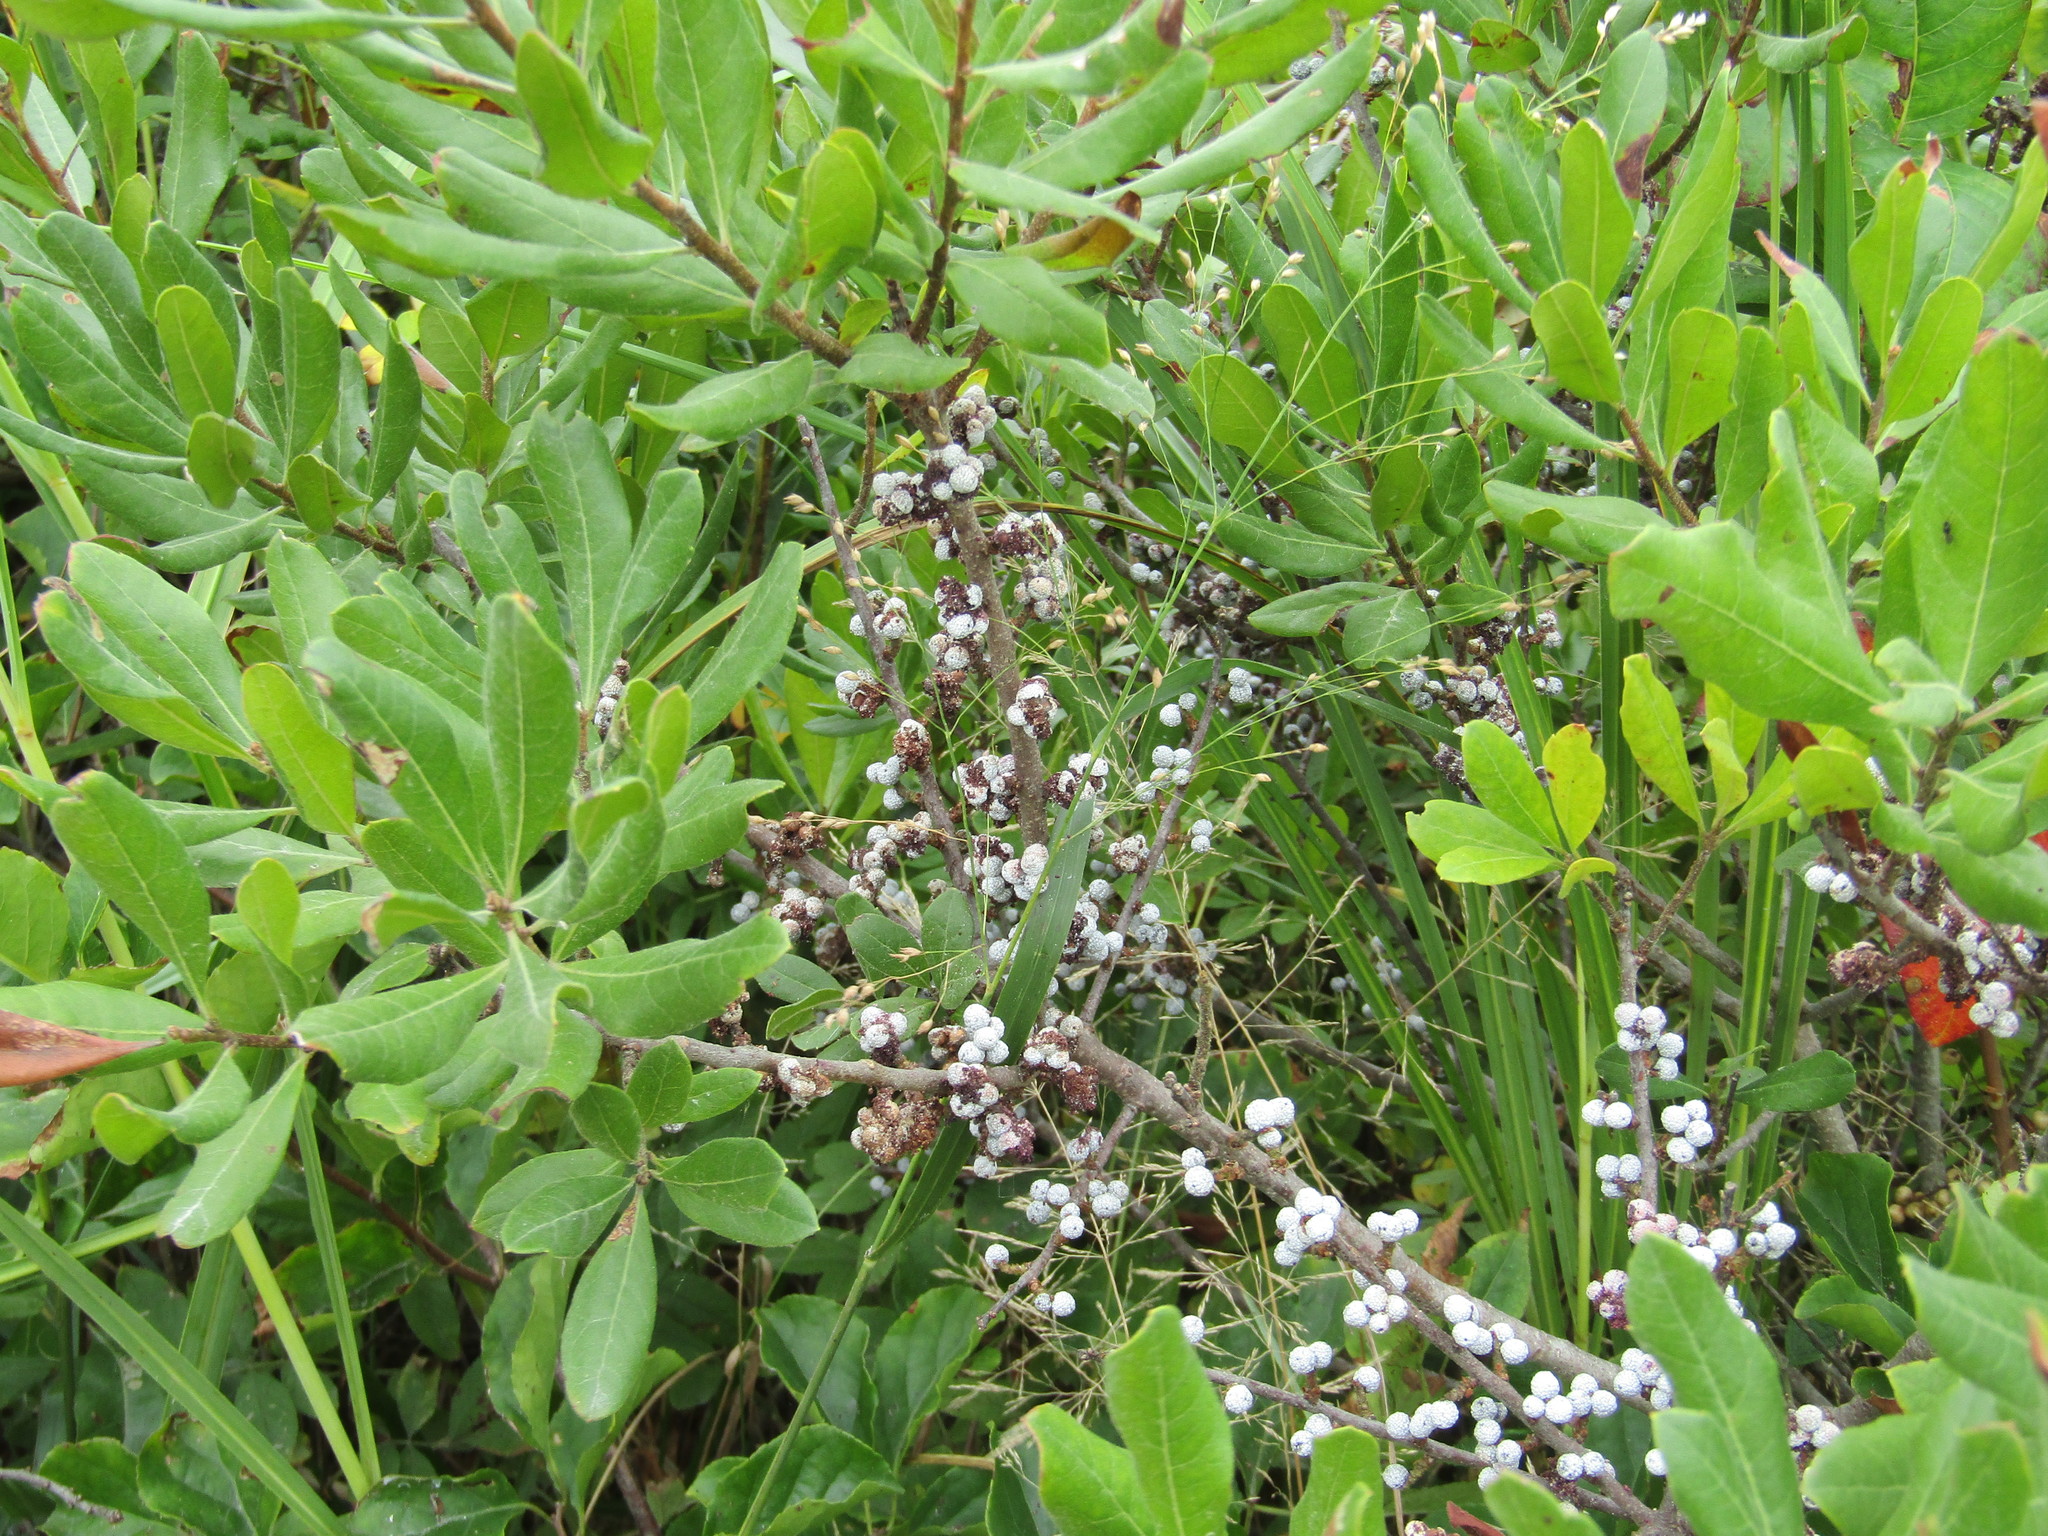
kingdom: Plantae
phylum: Tracheophyta
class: Magnoliopsida
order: Fagales
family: Myricaceae
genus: Morella
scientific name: Morella pensylvanica
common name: Northern bayberry
